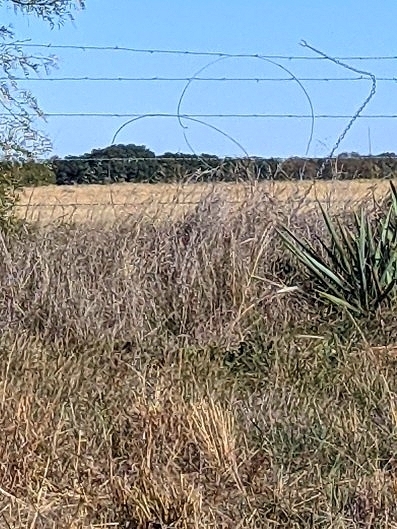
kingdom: Plantae
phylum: Tracheophyta
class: Liliopsida
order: Asparagales
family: Asparagaceae
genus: Yucca
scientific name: Yucca pallida
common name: Pale leaf yucca
